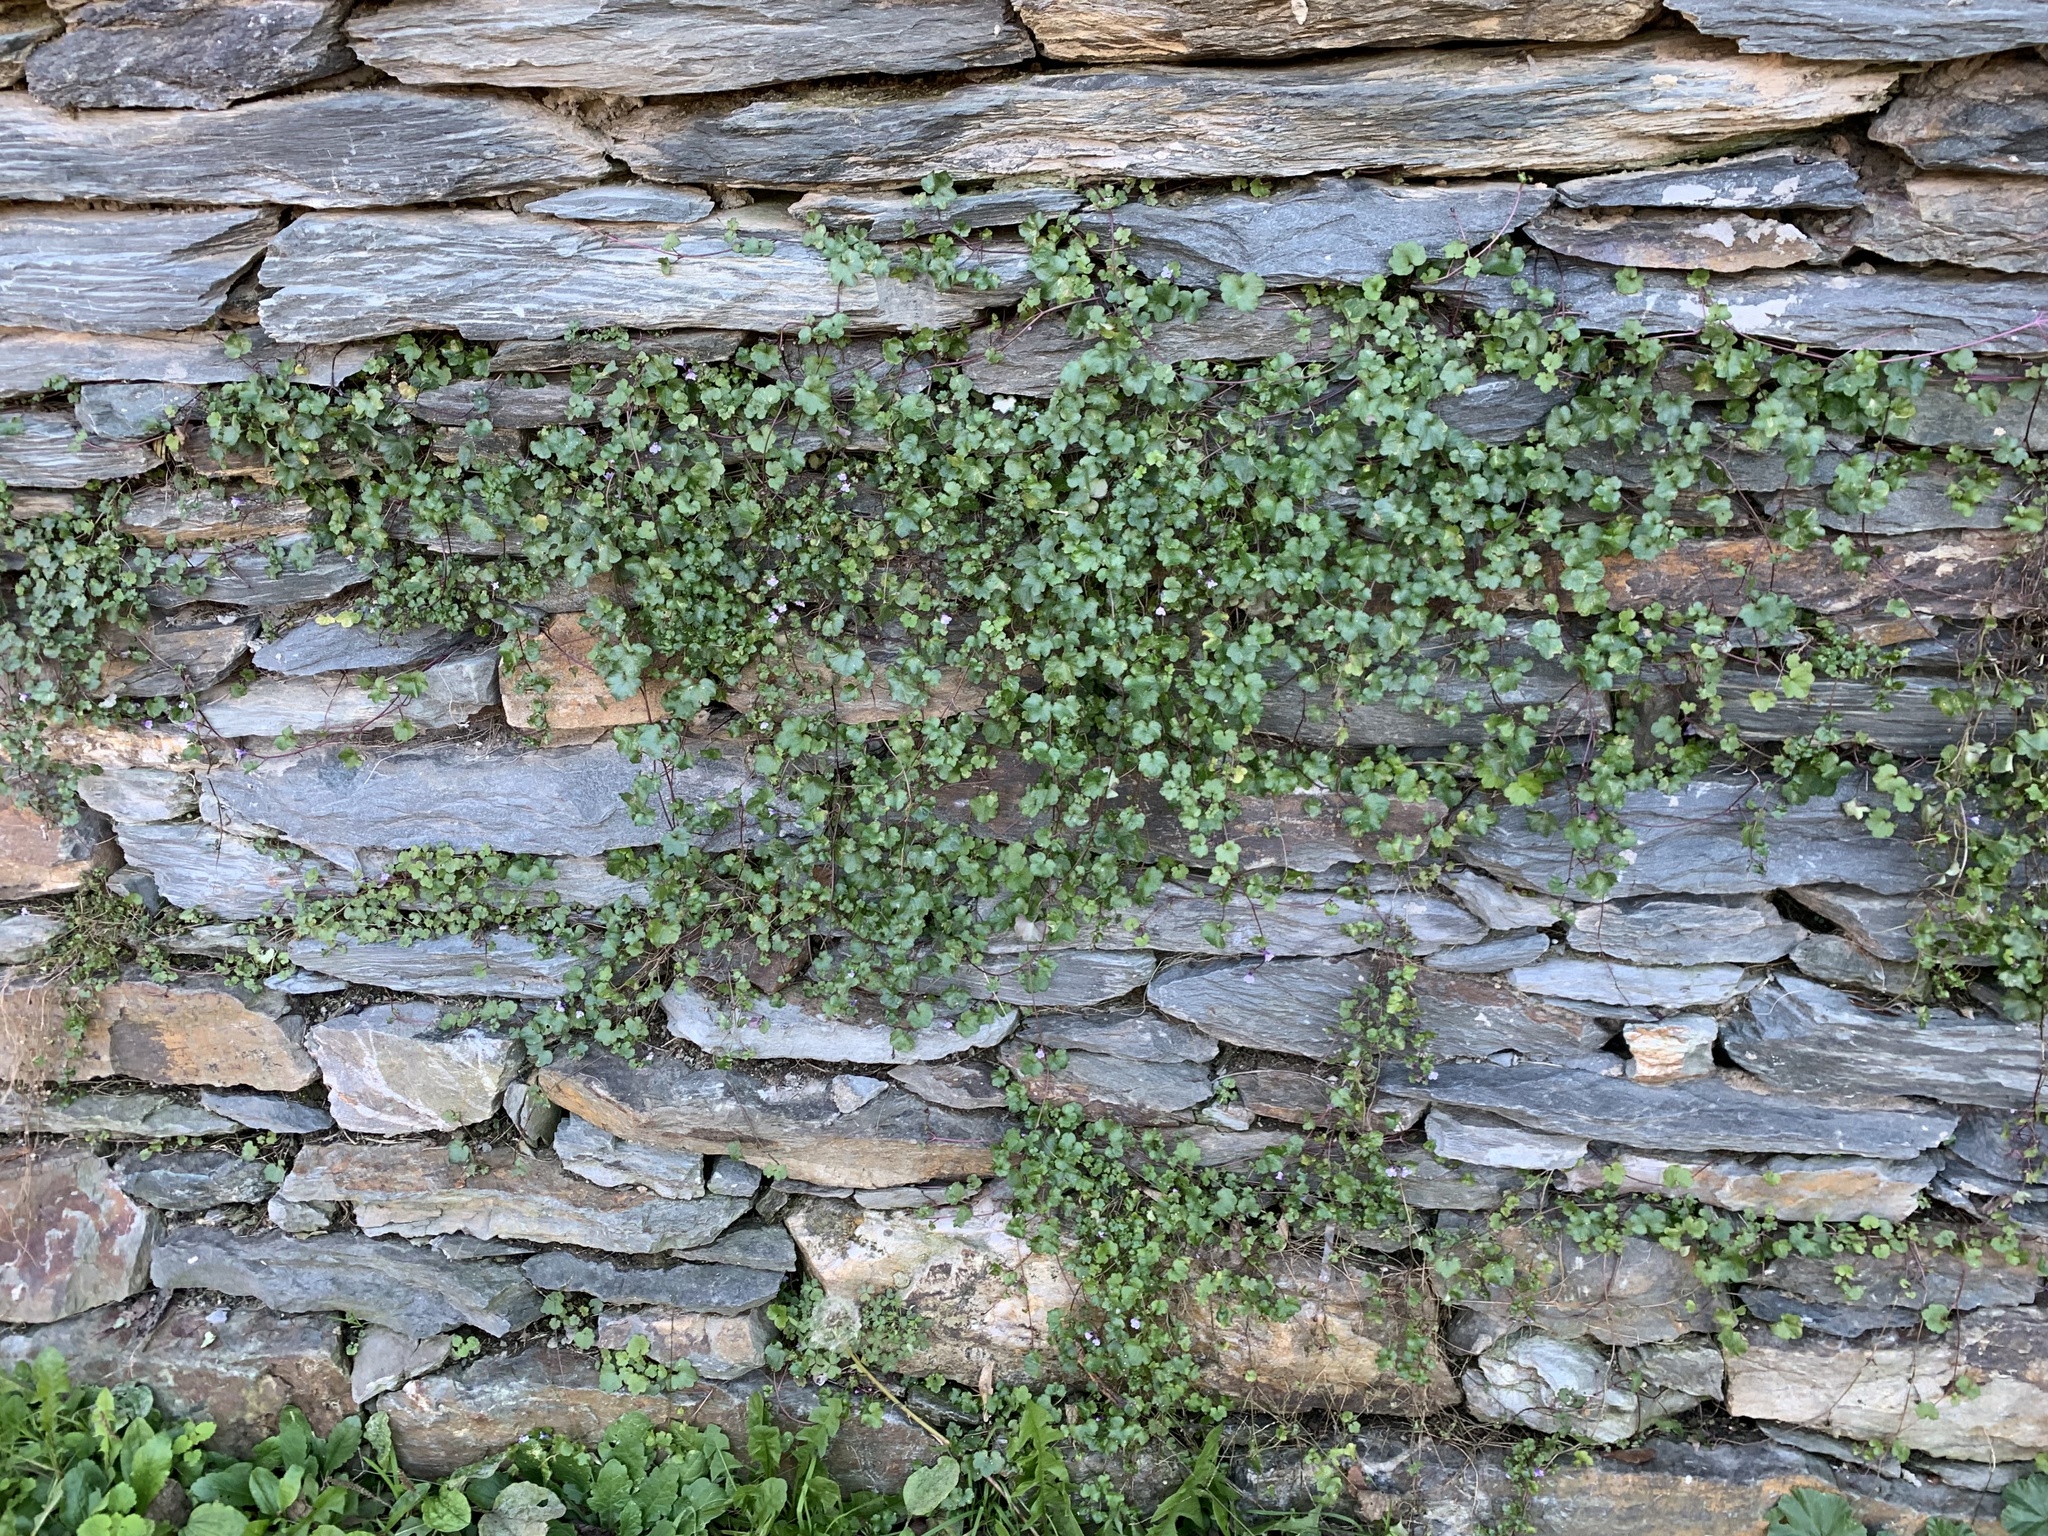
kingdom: Plantae
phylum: Tracheophyta
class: Magnoliopsida
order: Lamiales
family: Plantaginaceae
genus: Cymbalaria
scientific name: Cymbalaria muralis
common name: Ivy-leaved toadflax
